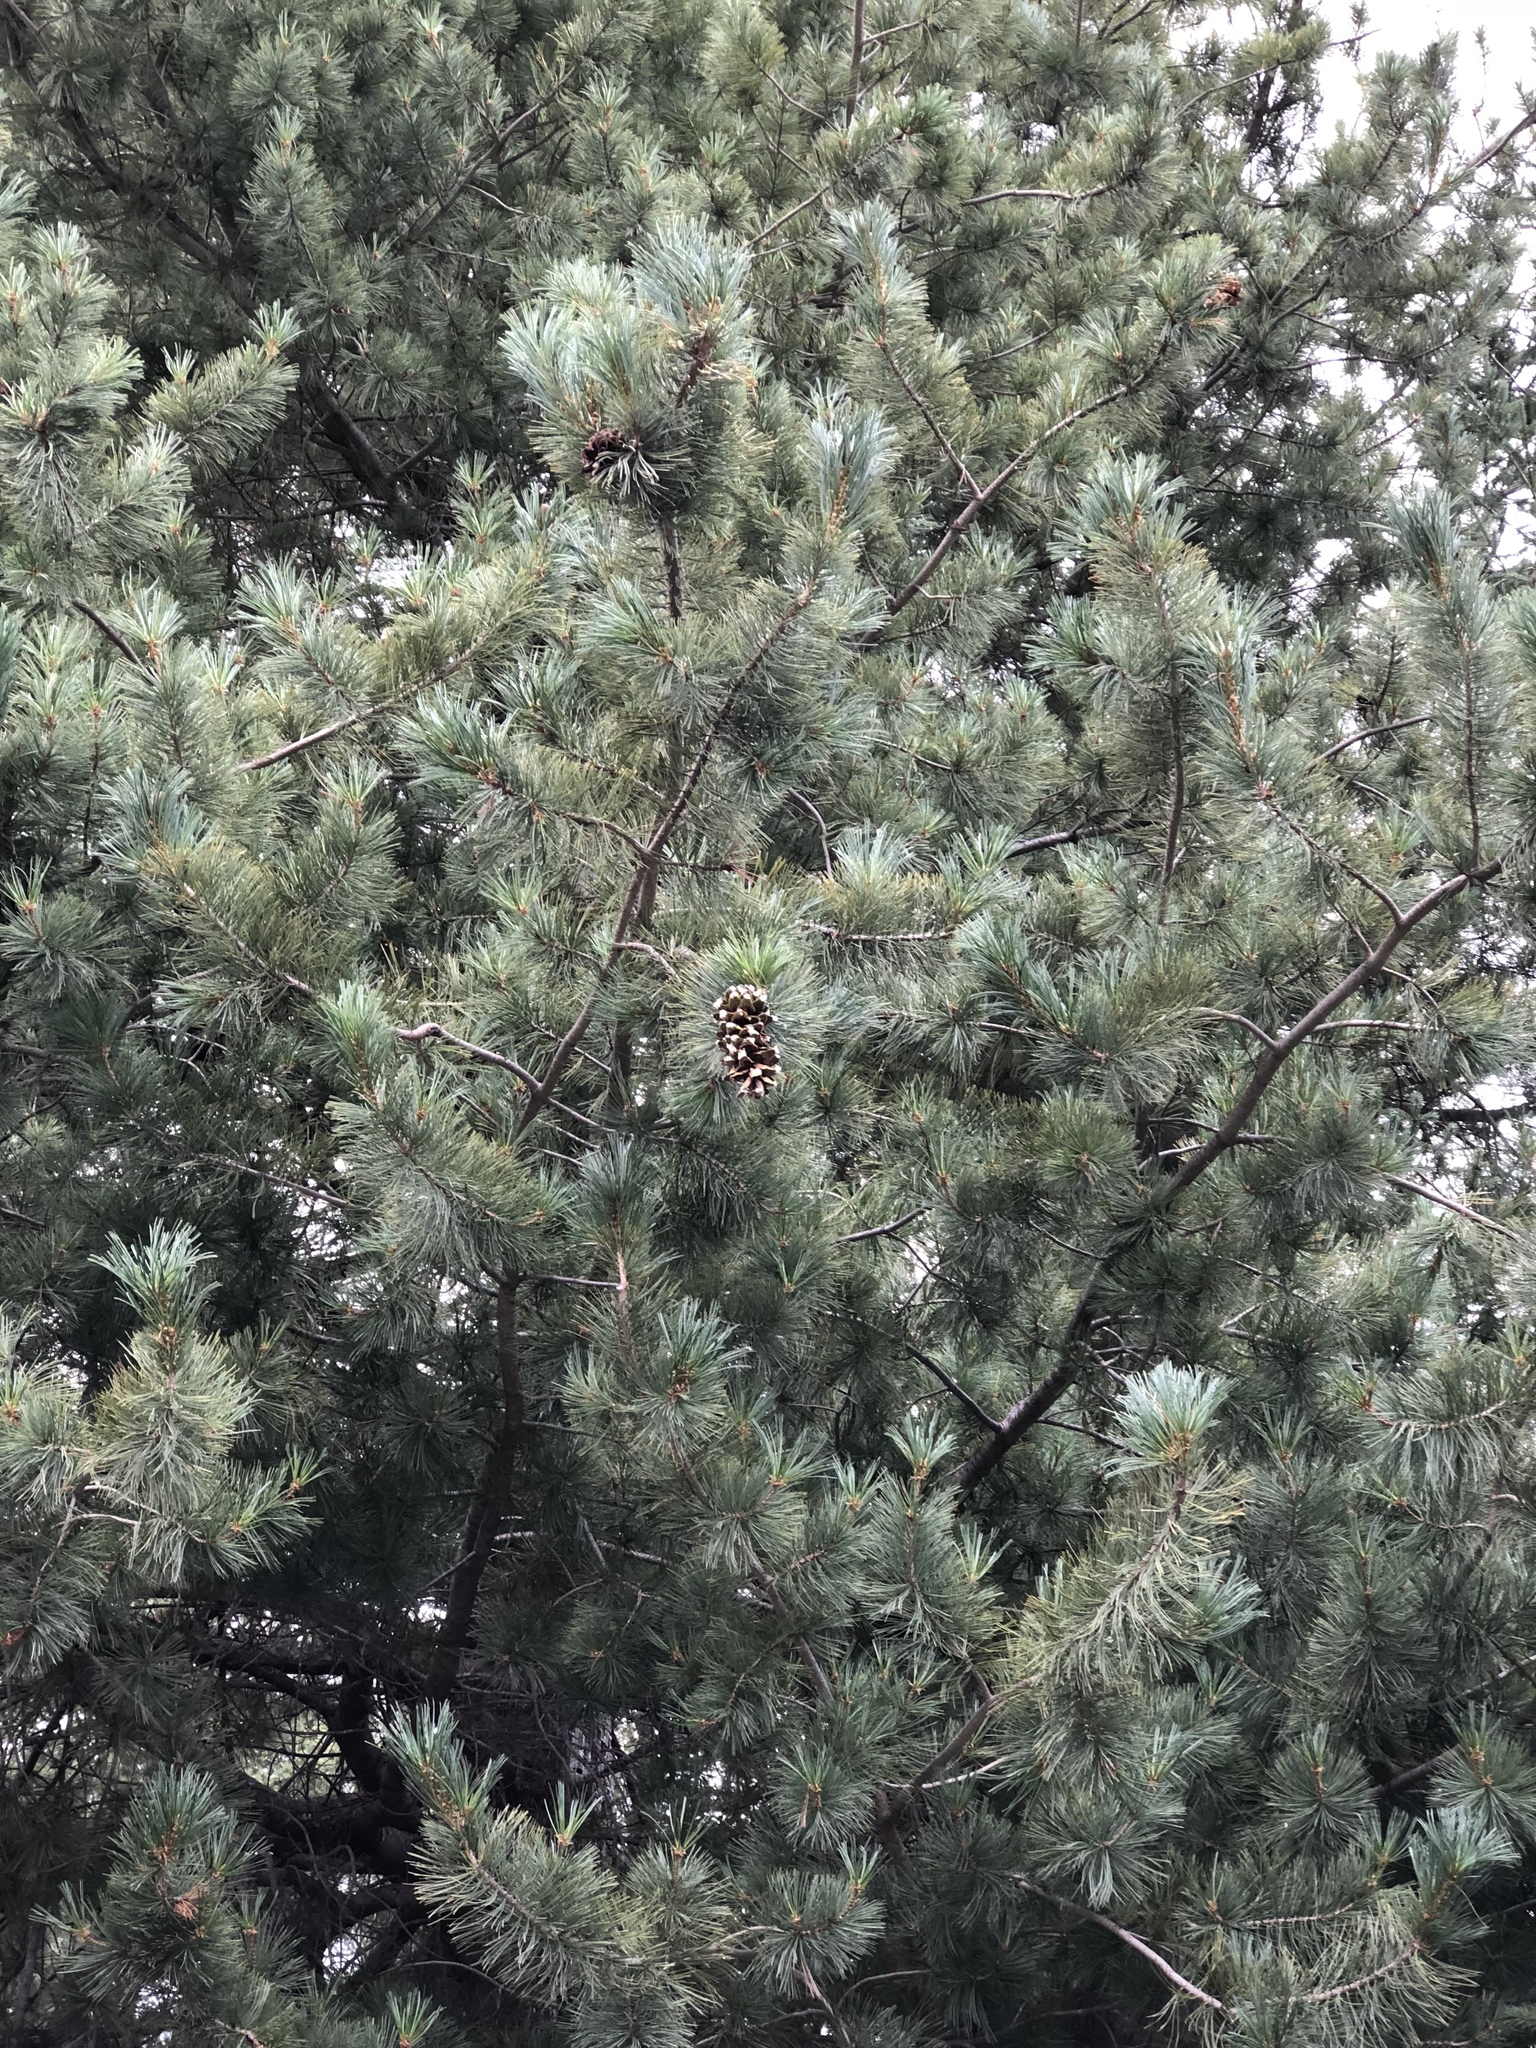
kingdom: Plantae
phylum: Tracheophyta
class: Pinopsida
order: Pinales
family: Pinaceae
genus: Pinus
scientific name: Pinus strobiformis
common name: Southwestern white pine
